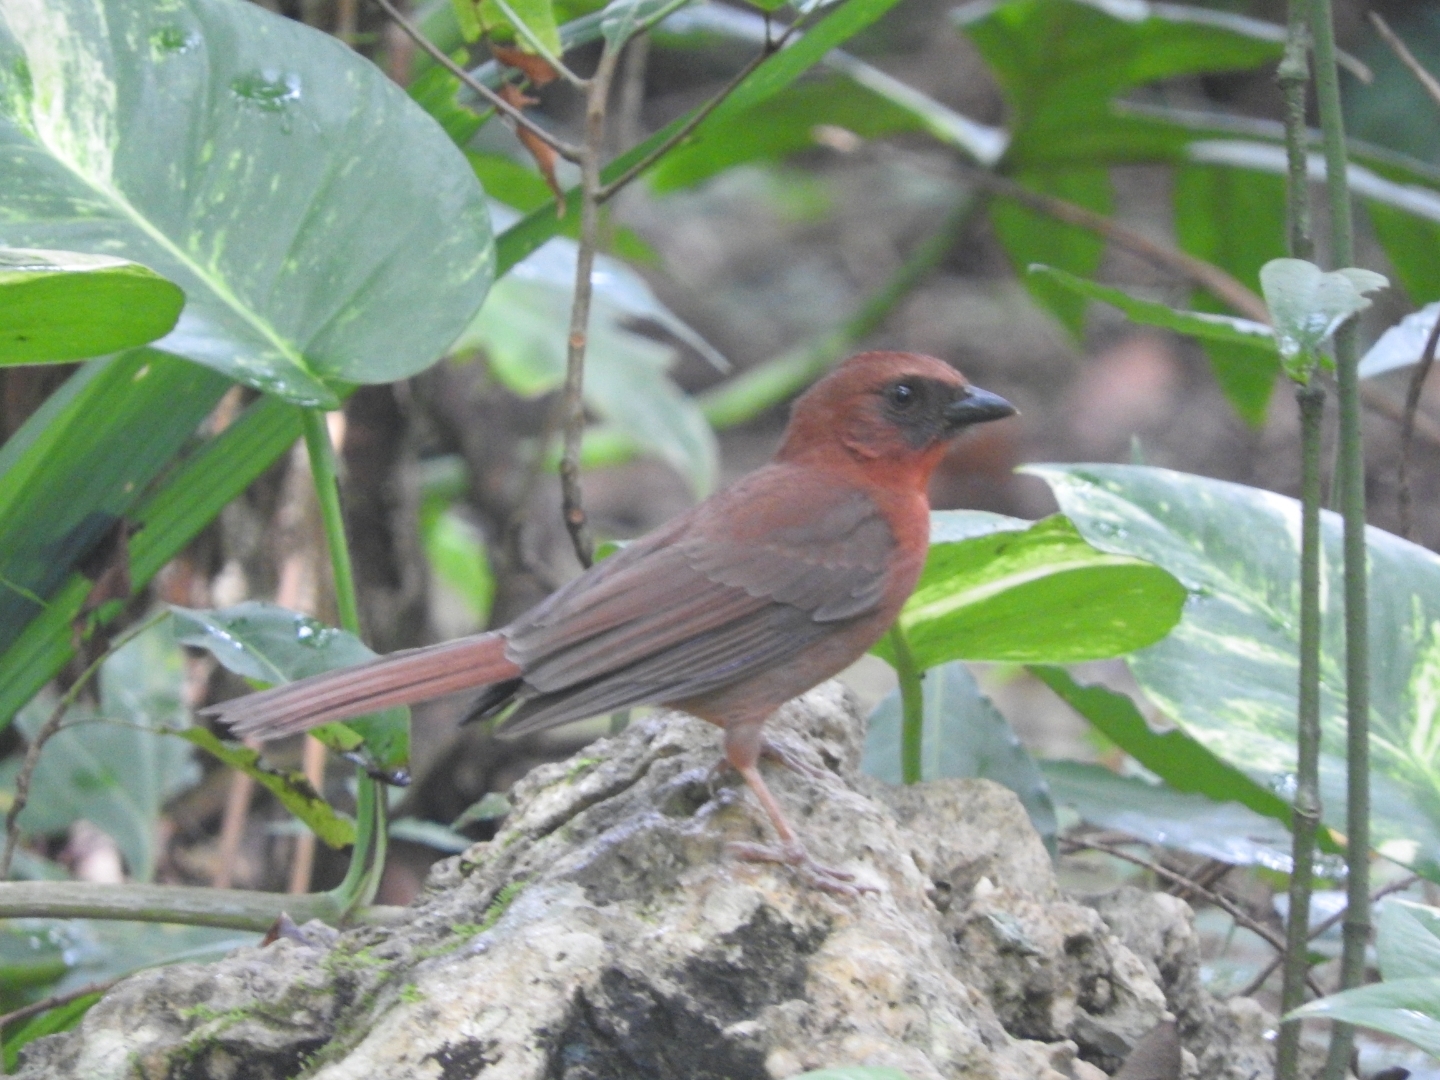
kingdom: Animalia
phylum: Chordata
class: Aves
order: Passeriformes
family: Cardinalidae
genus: Habia
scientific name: Habia fuscicauda
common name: Red-throated ant-tanager
